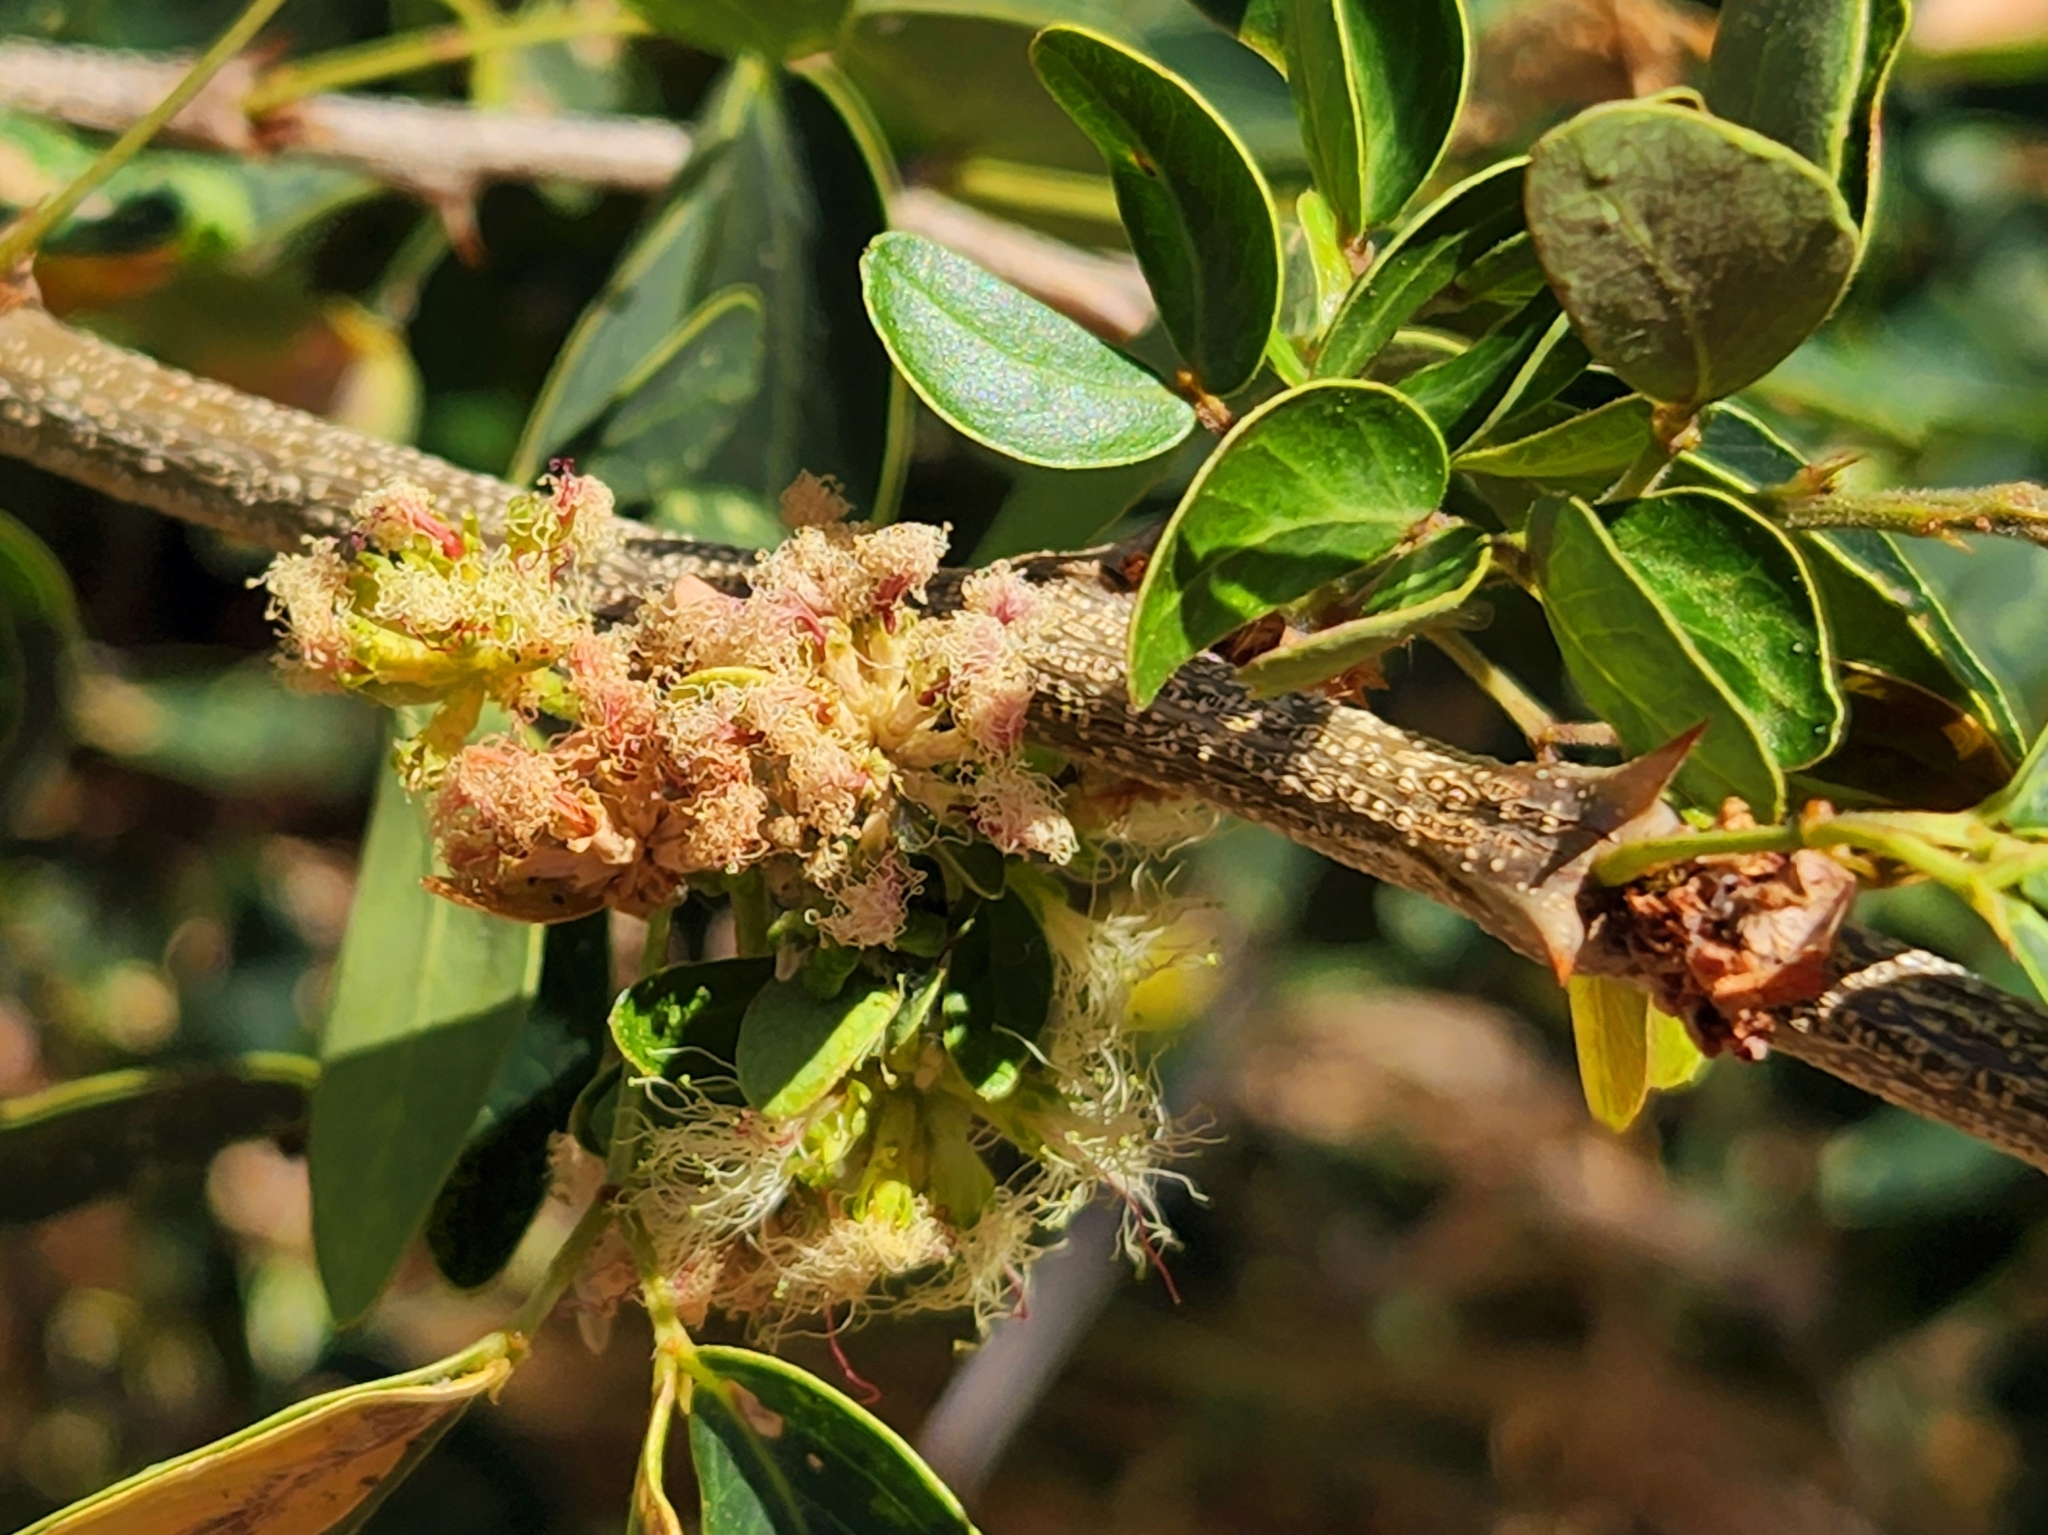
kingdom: Plantae
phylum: Tracheophyta
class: Magnoliopsida
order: Fabales
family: Fabaceae
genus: Pithecellobium
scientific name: Pithecellobium dulce
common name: Monkeypod
